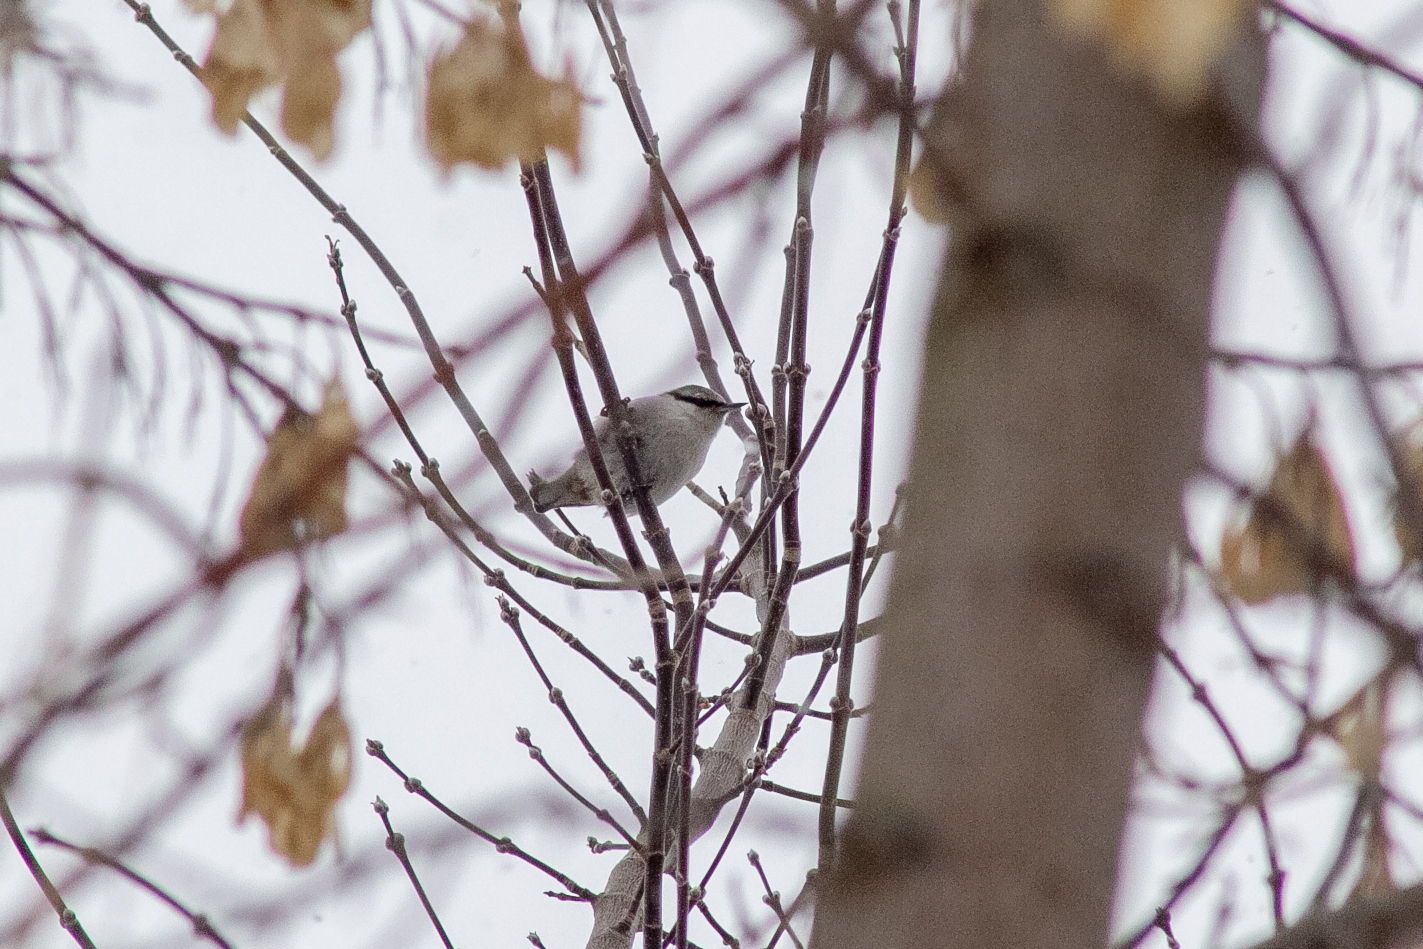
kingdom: Animalia
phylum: Chordata
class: Aves
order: Passeriformes
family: Sittidae
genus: Sitta
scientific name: Sitta europaea
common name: Eurasian nuthatch
